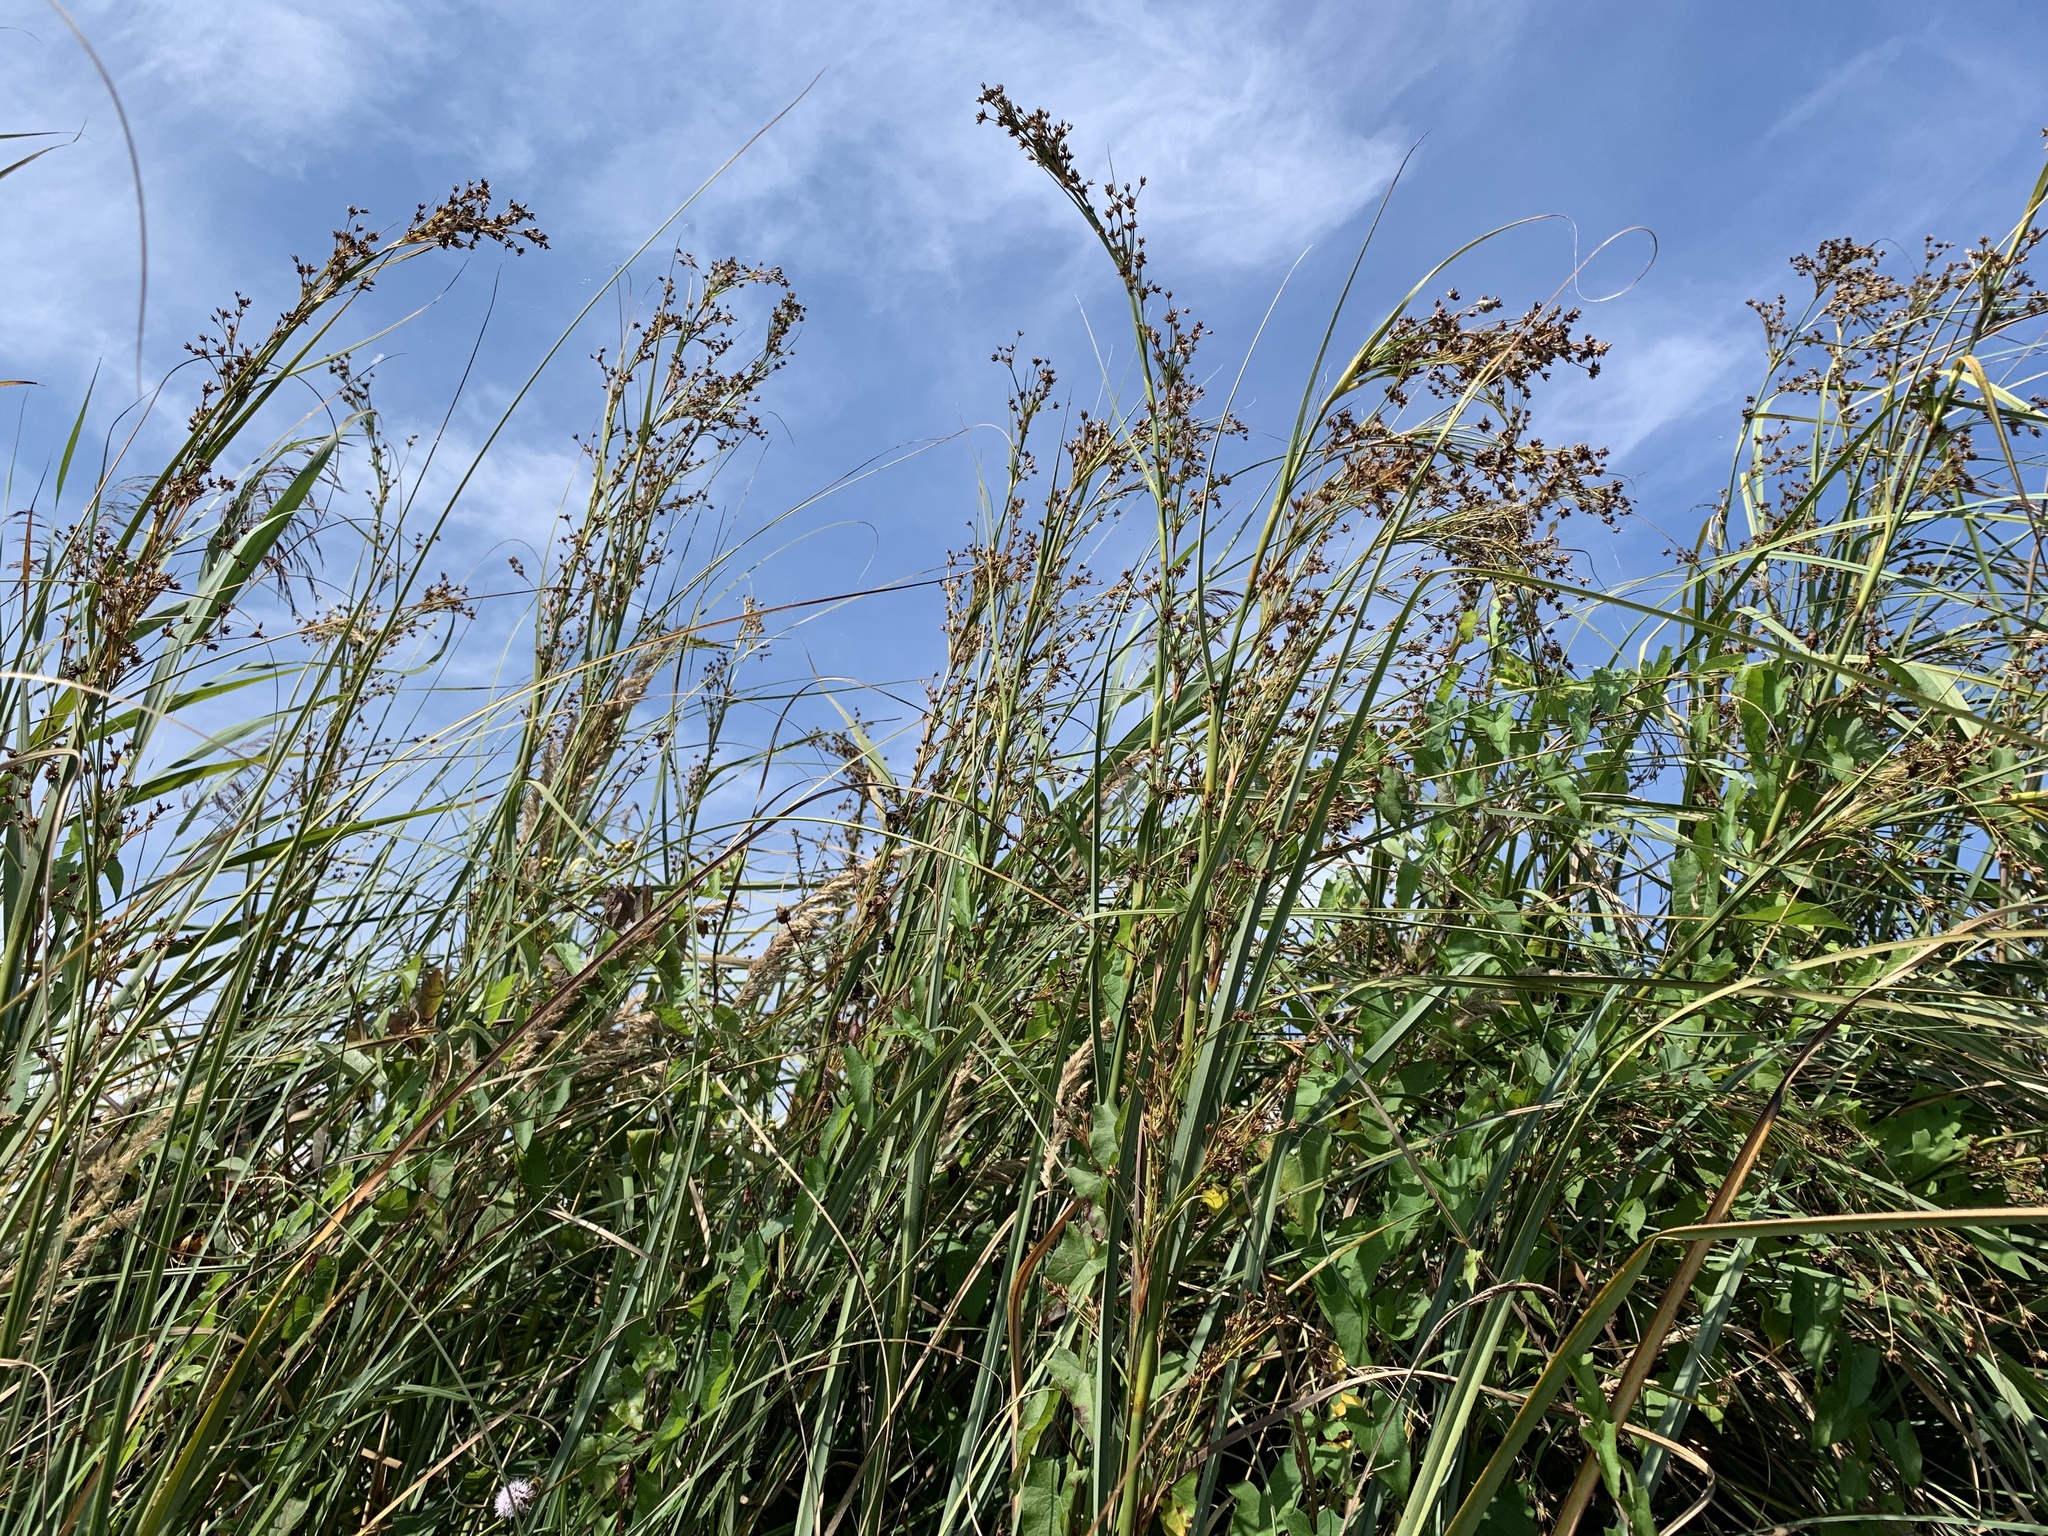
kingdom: Plantae
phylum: Tracheophyta
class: Liliopsida
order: Poales
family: Cyperaceae
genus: Cladium
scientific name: Cladium mariscus
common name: Great fen-sedge
